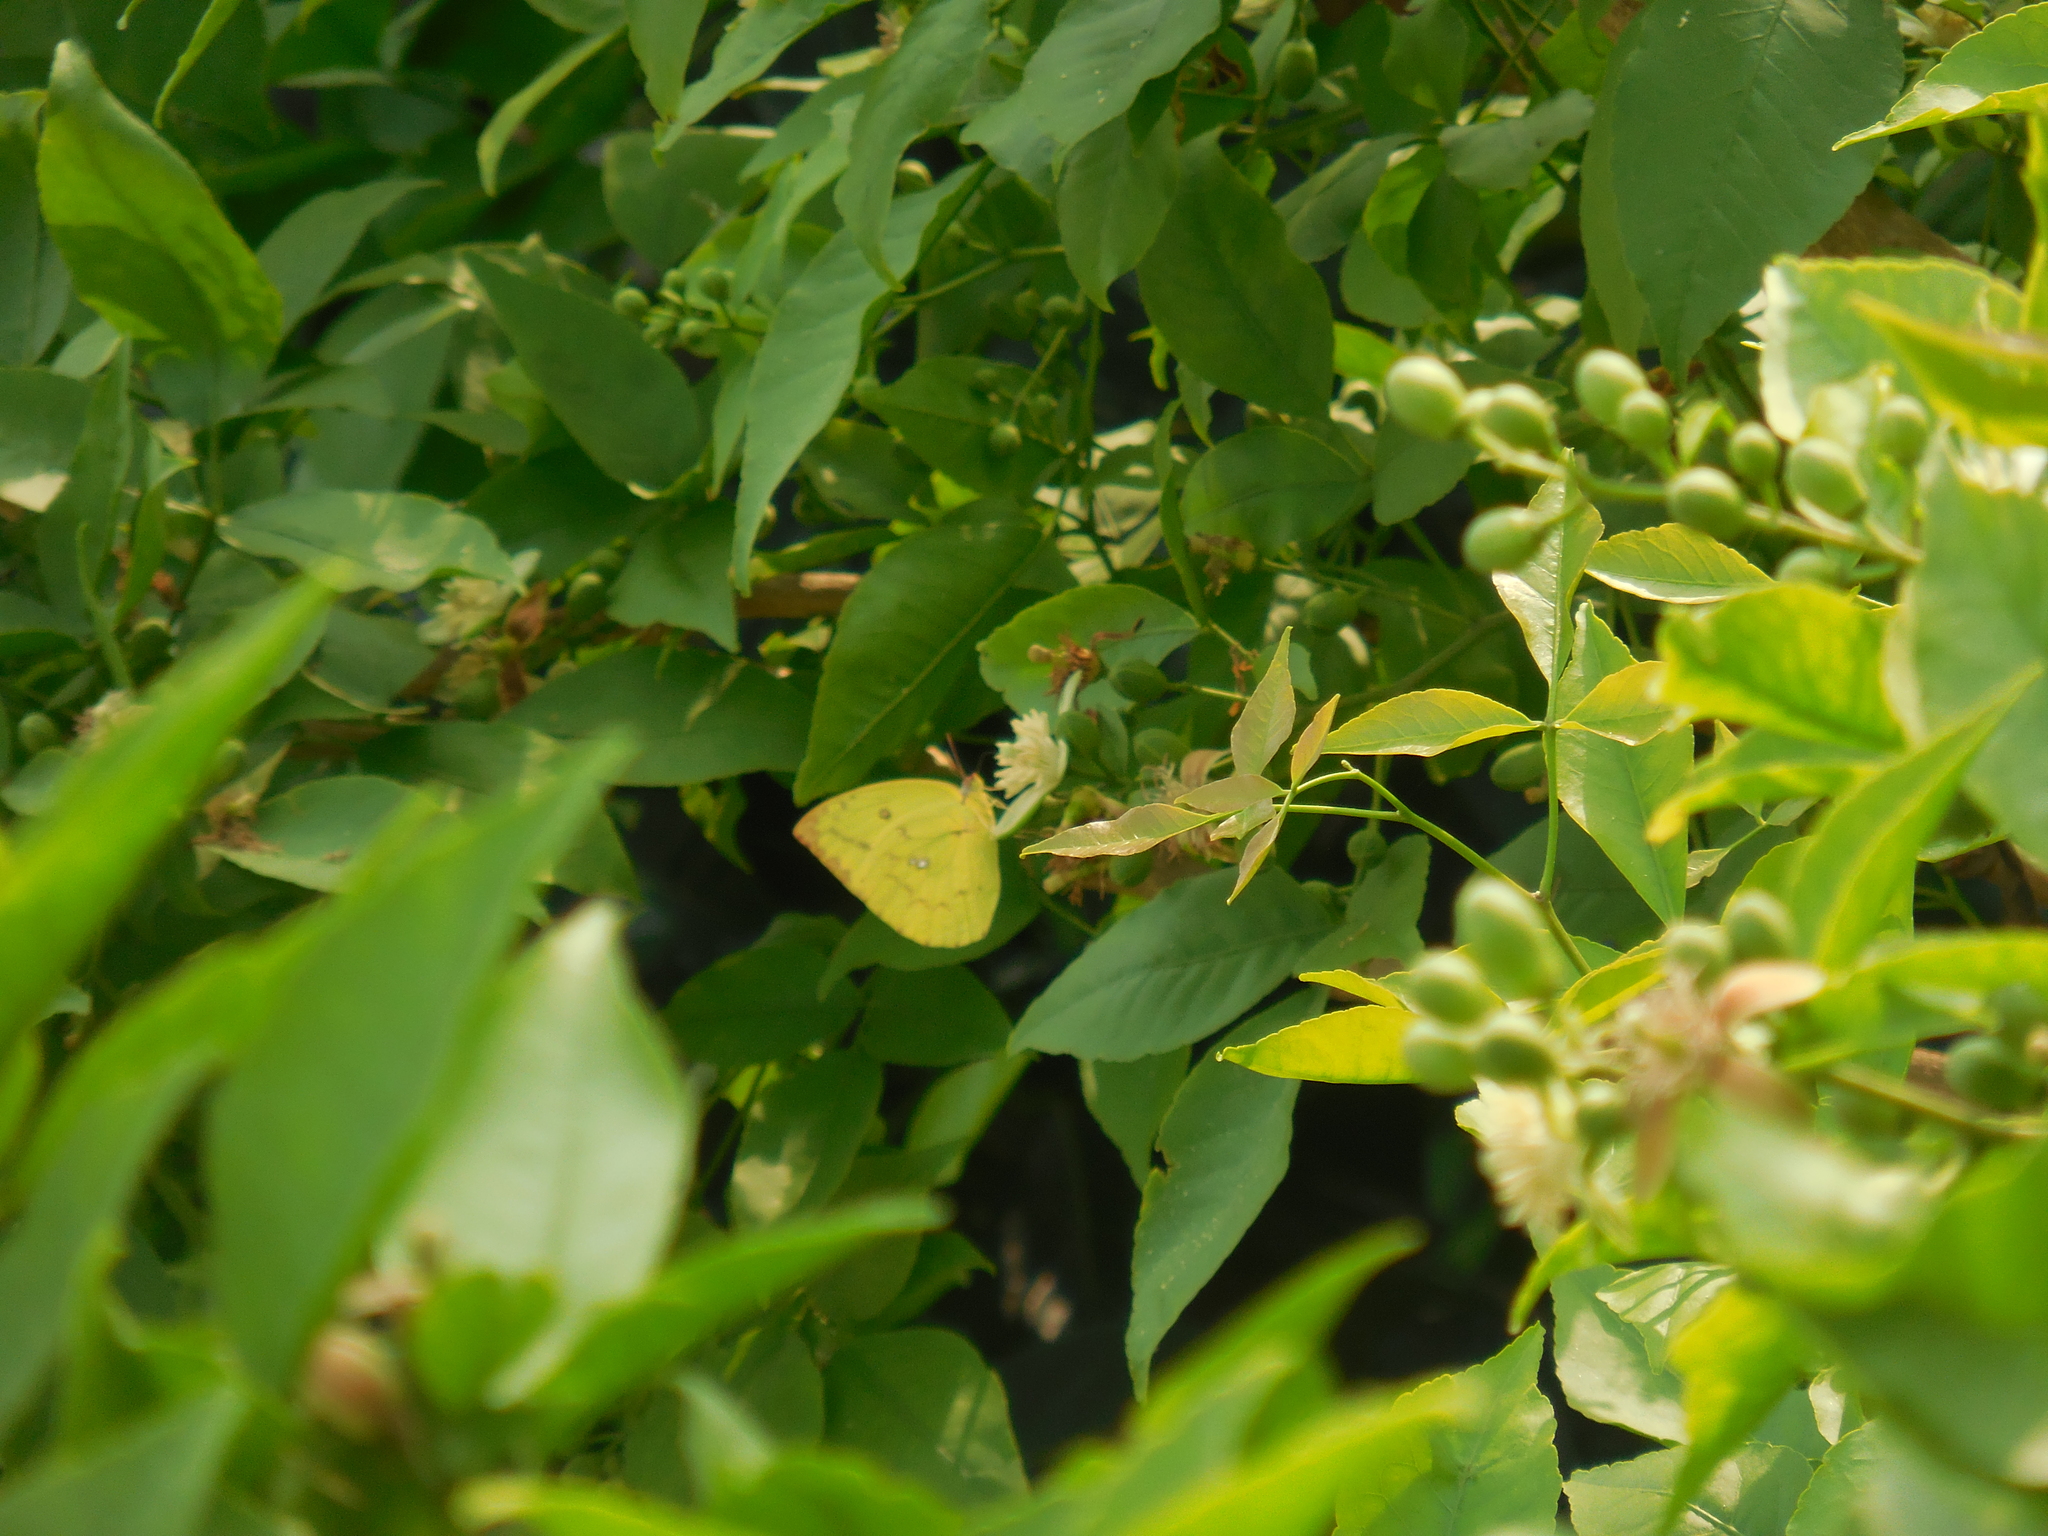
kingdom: Animalia
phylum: Arthropoda
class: Insecta
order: Lepidoptera
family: Pieridae
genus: Catopsilia
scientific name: Catopsilia pomona
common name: Common emigrant
